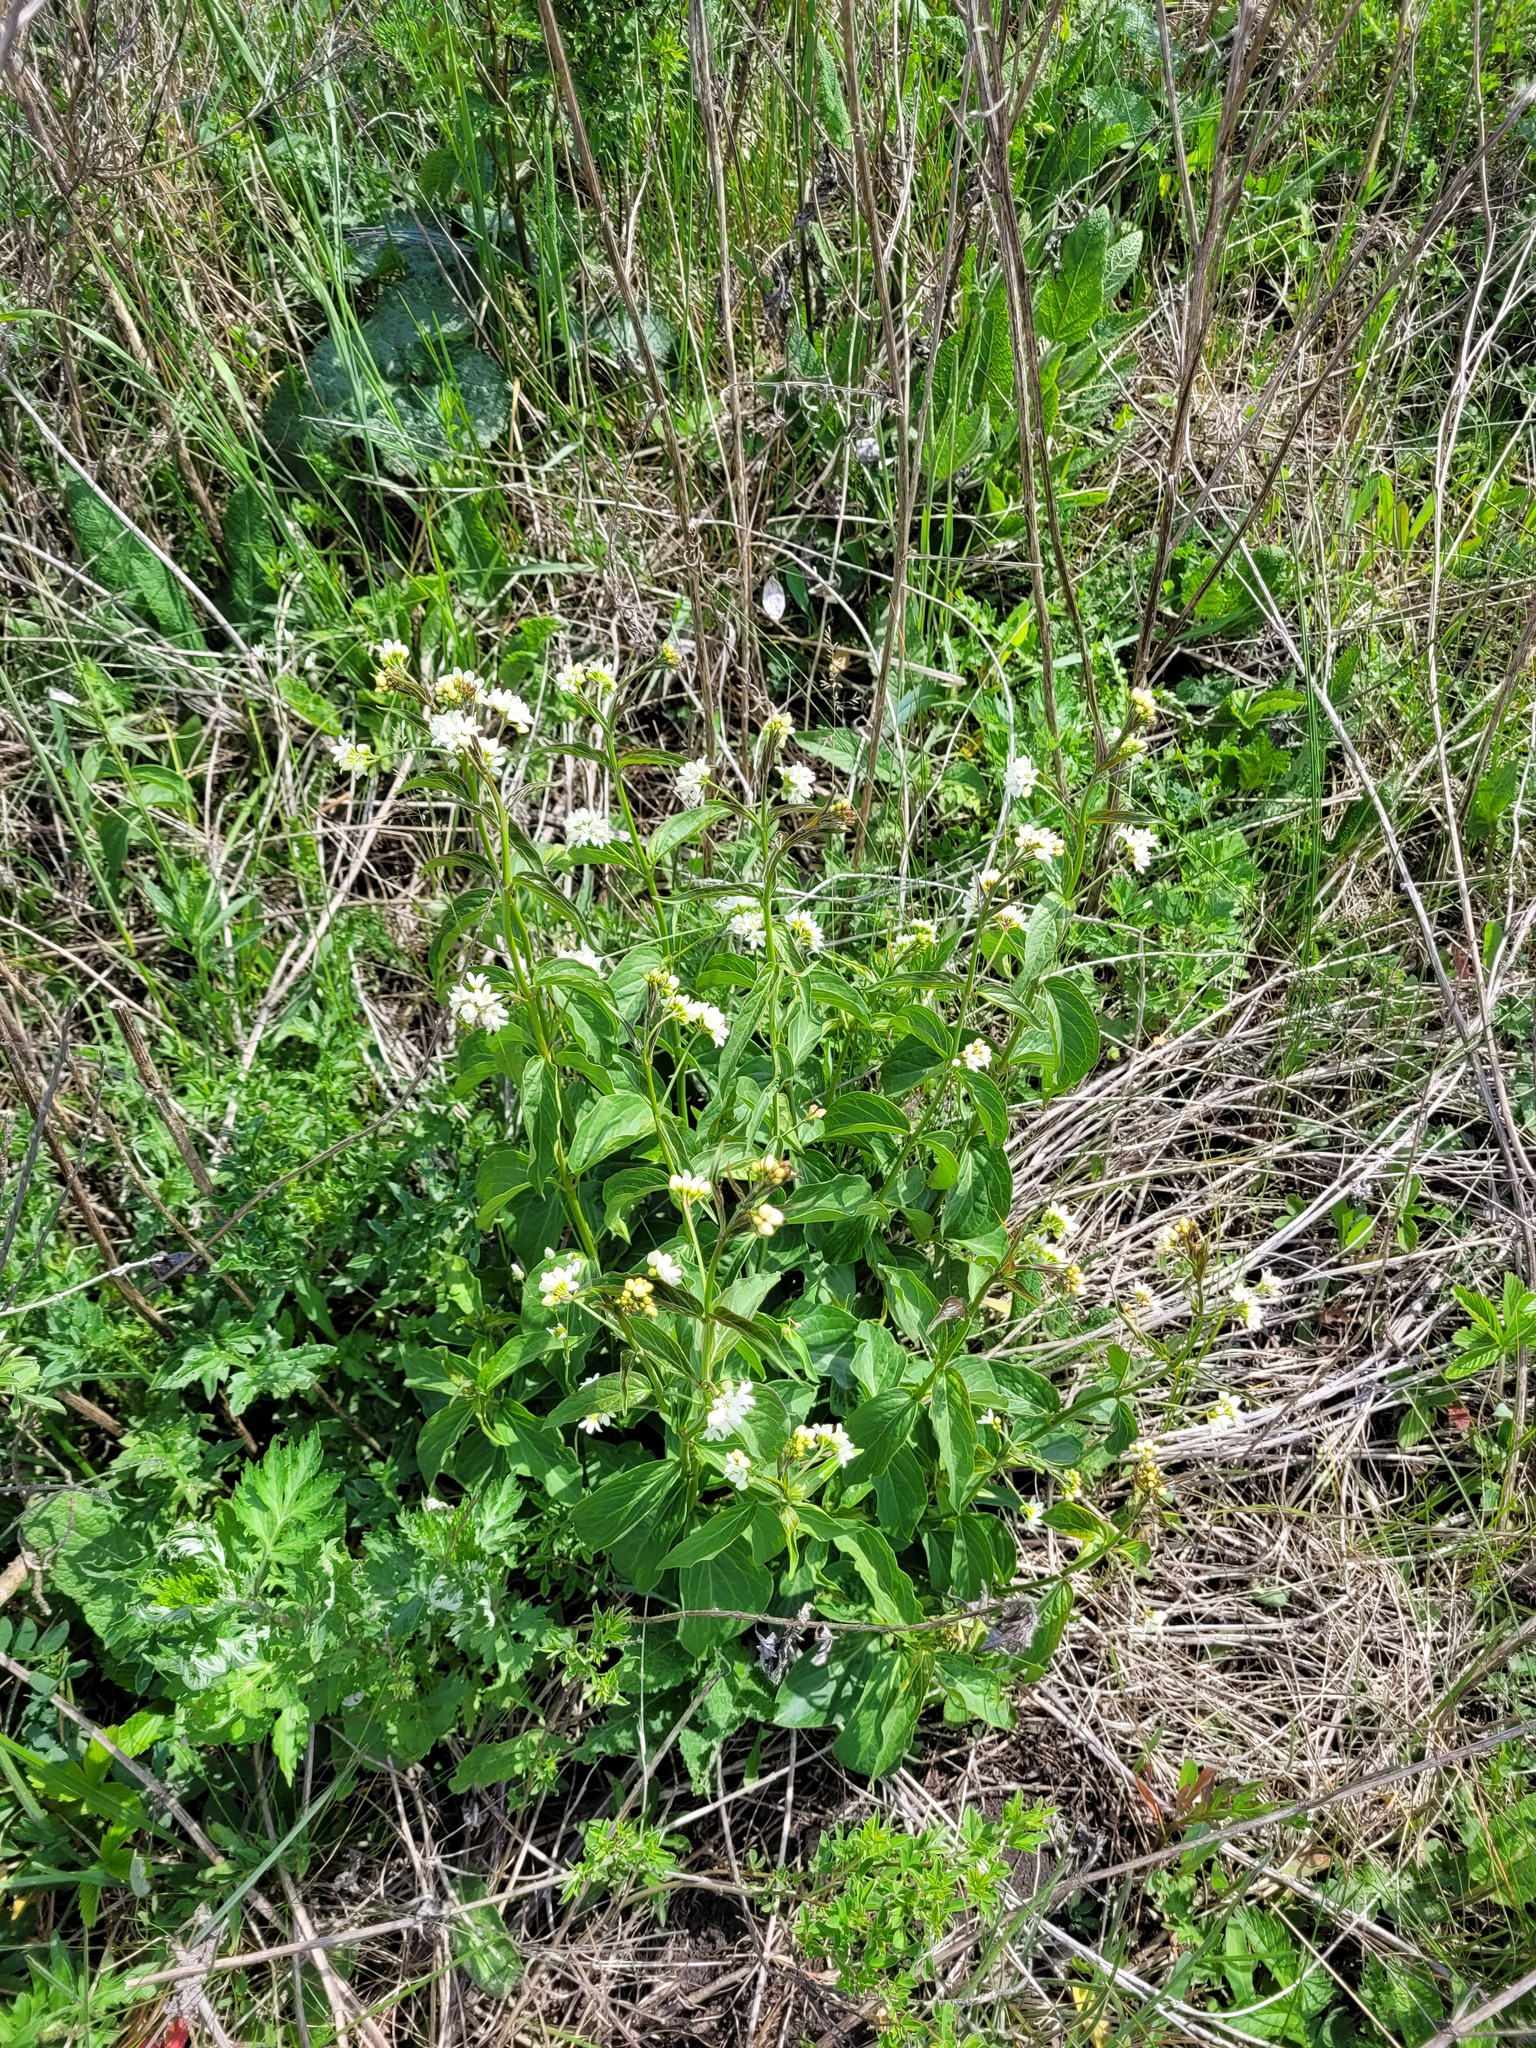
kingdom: Plantae
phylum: Tracheophyta
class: Magnoliopsida
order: Gentianales
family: Apocynaceae
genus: Vincetoxicum
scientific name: Vincetoxicum hirundinaria
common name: White swallowwort
